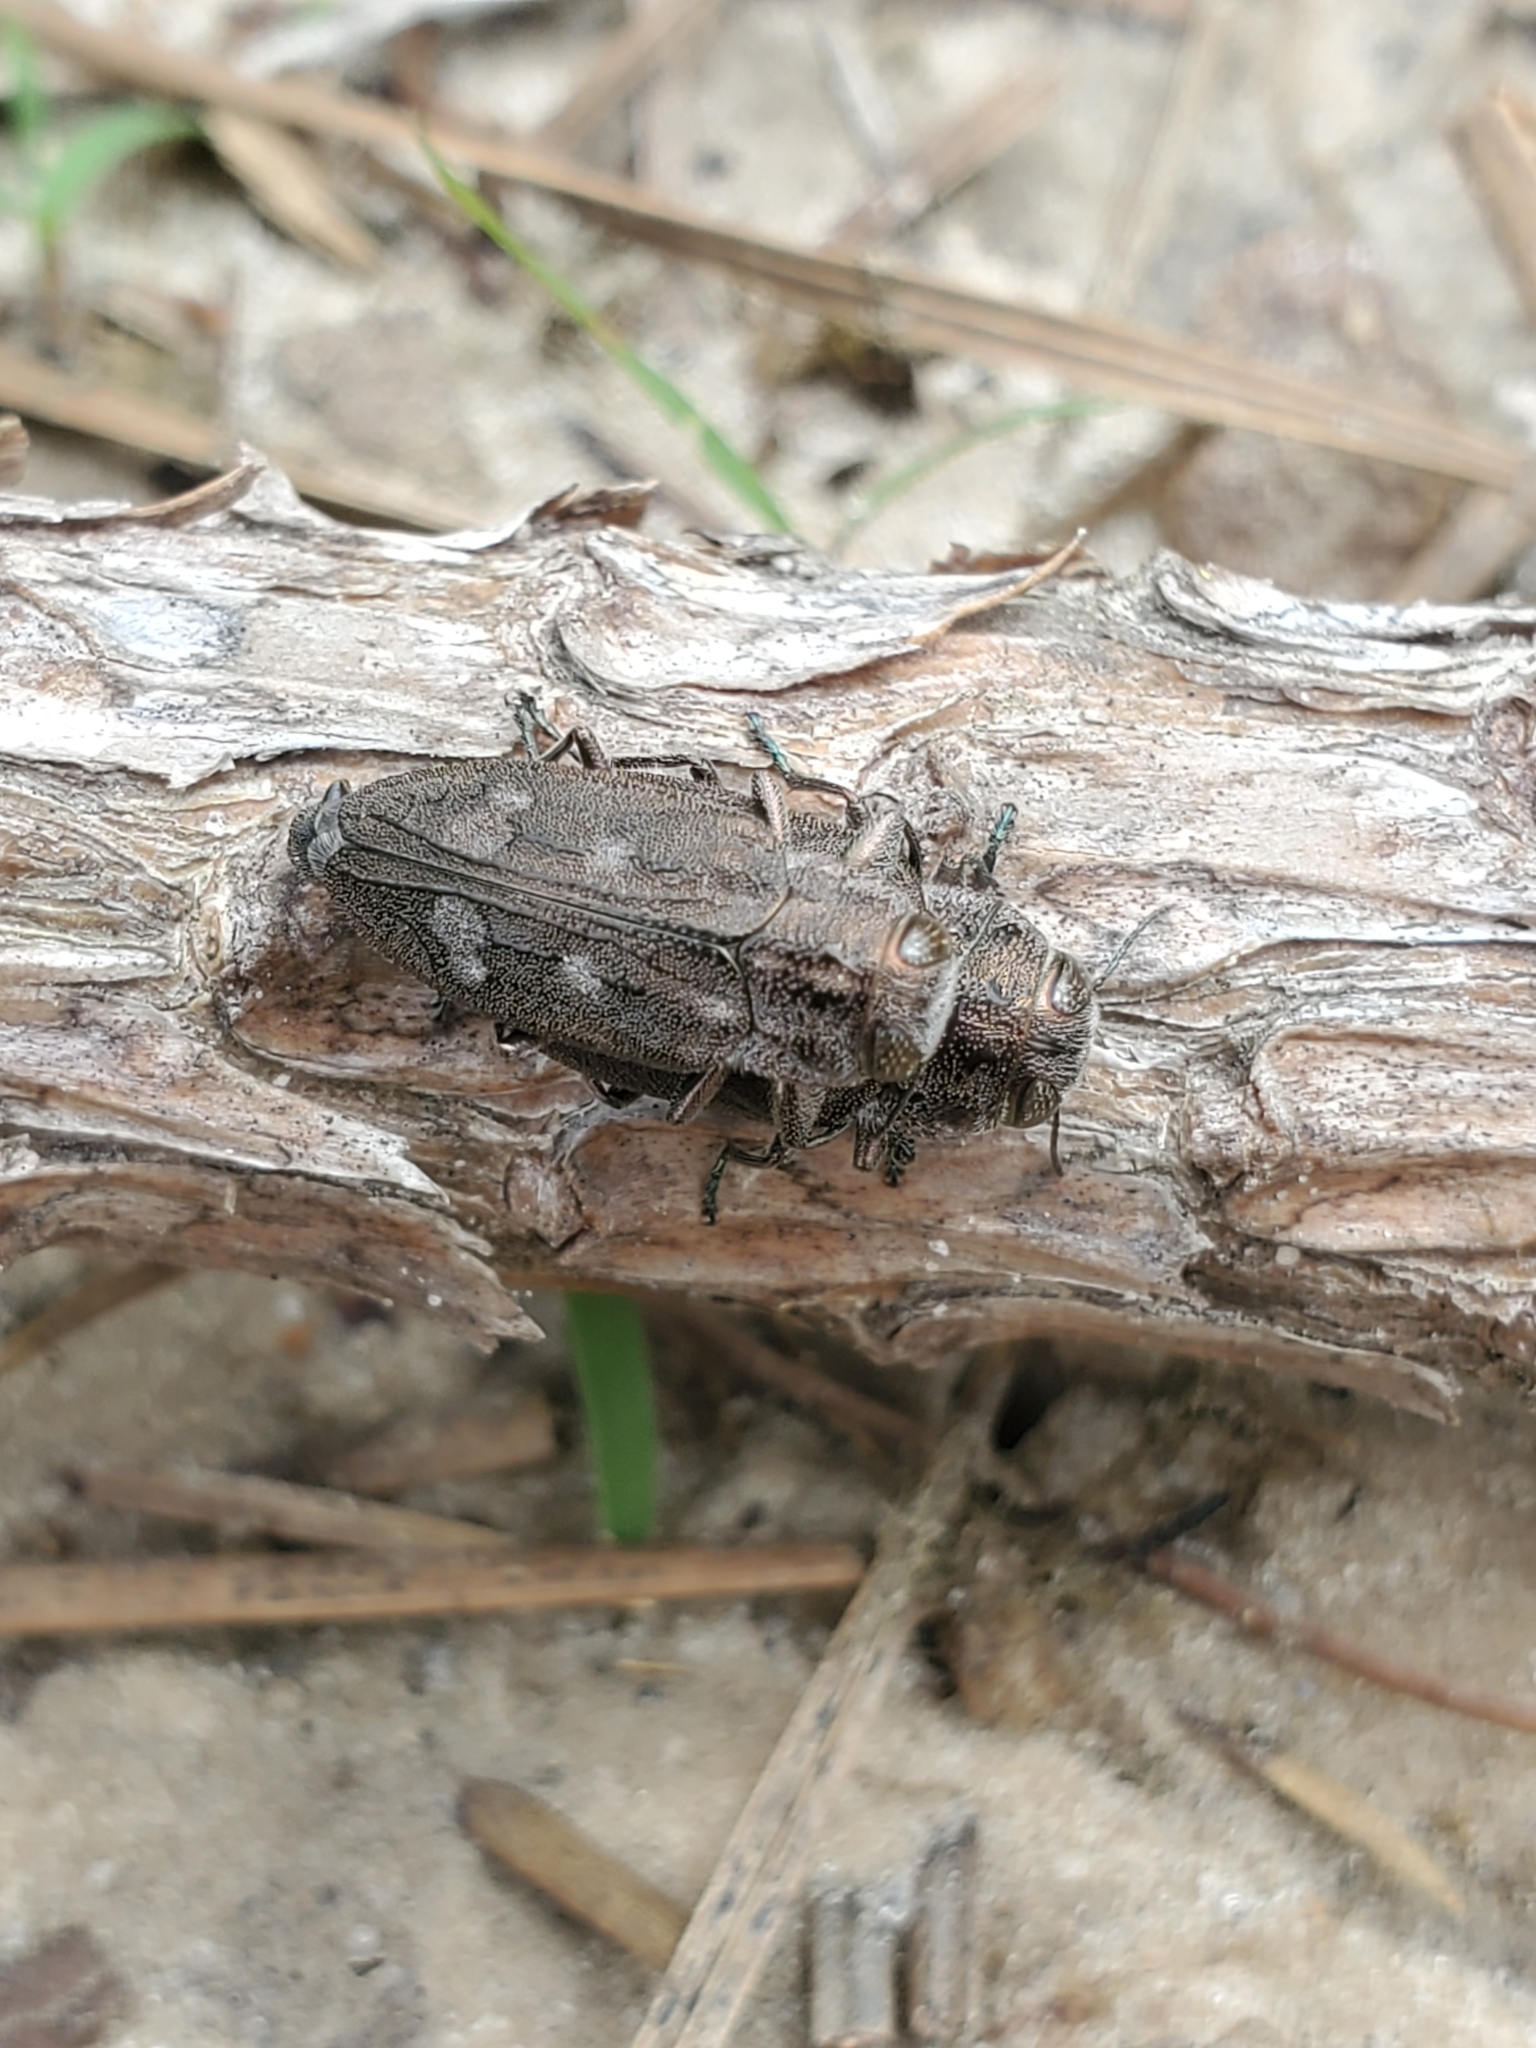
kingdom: Animalia
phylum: Arthropoda
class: Insecta
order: Coleoptera
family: Buprestidae
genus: Chrysobothris
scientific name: Chrysobothris cribraria
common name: Sifting metallic wood-borer
